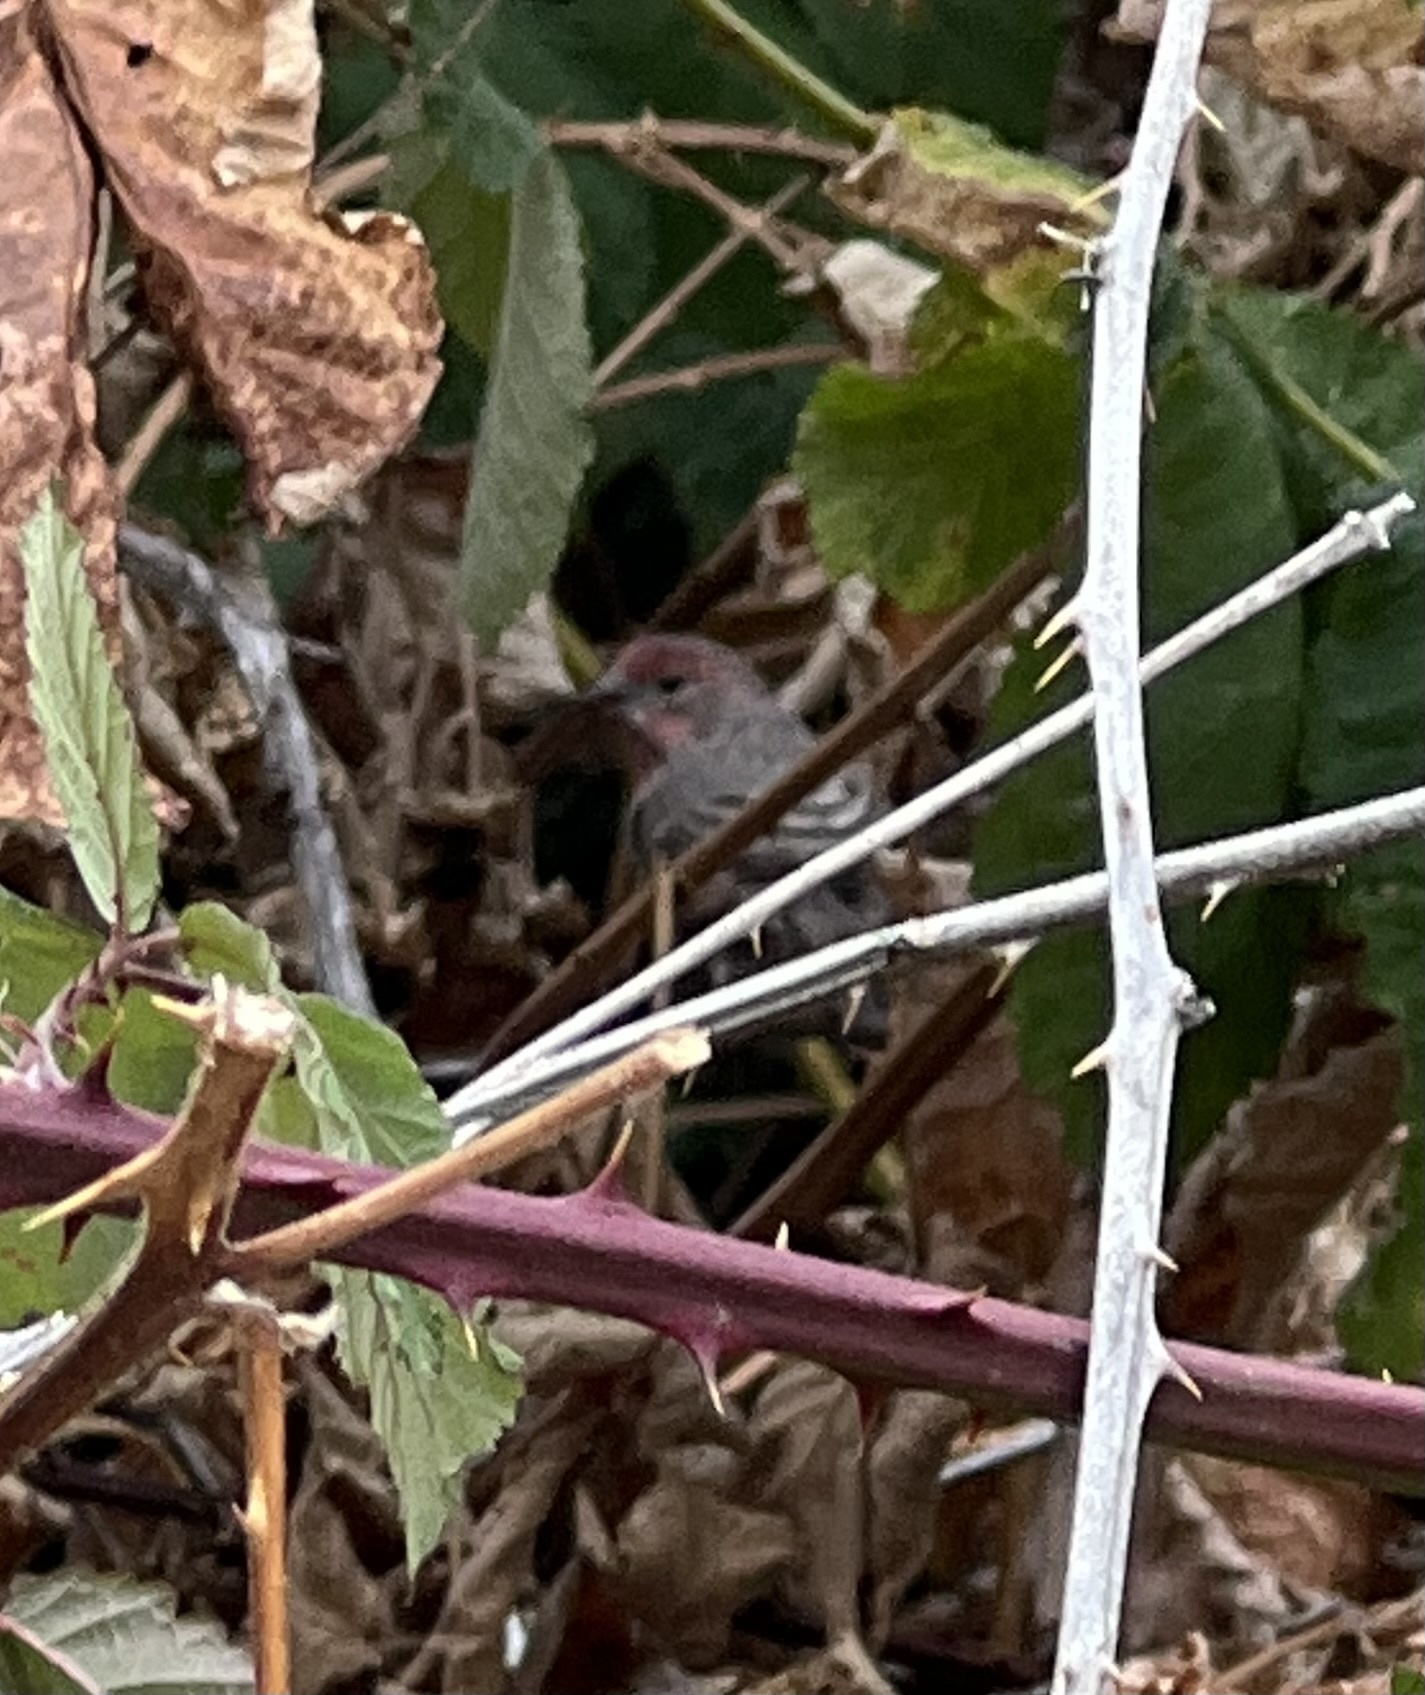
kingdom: Animalia
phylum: Chordata
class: Aves
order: Passeriformes
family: Fringillidae
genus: Haemorhous
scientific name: Haemorhous mexicanus
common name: House finch
